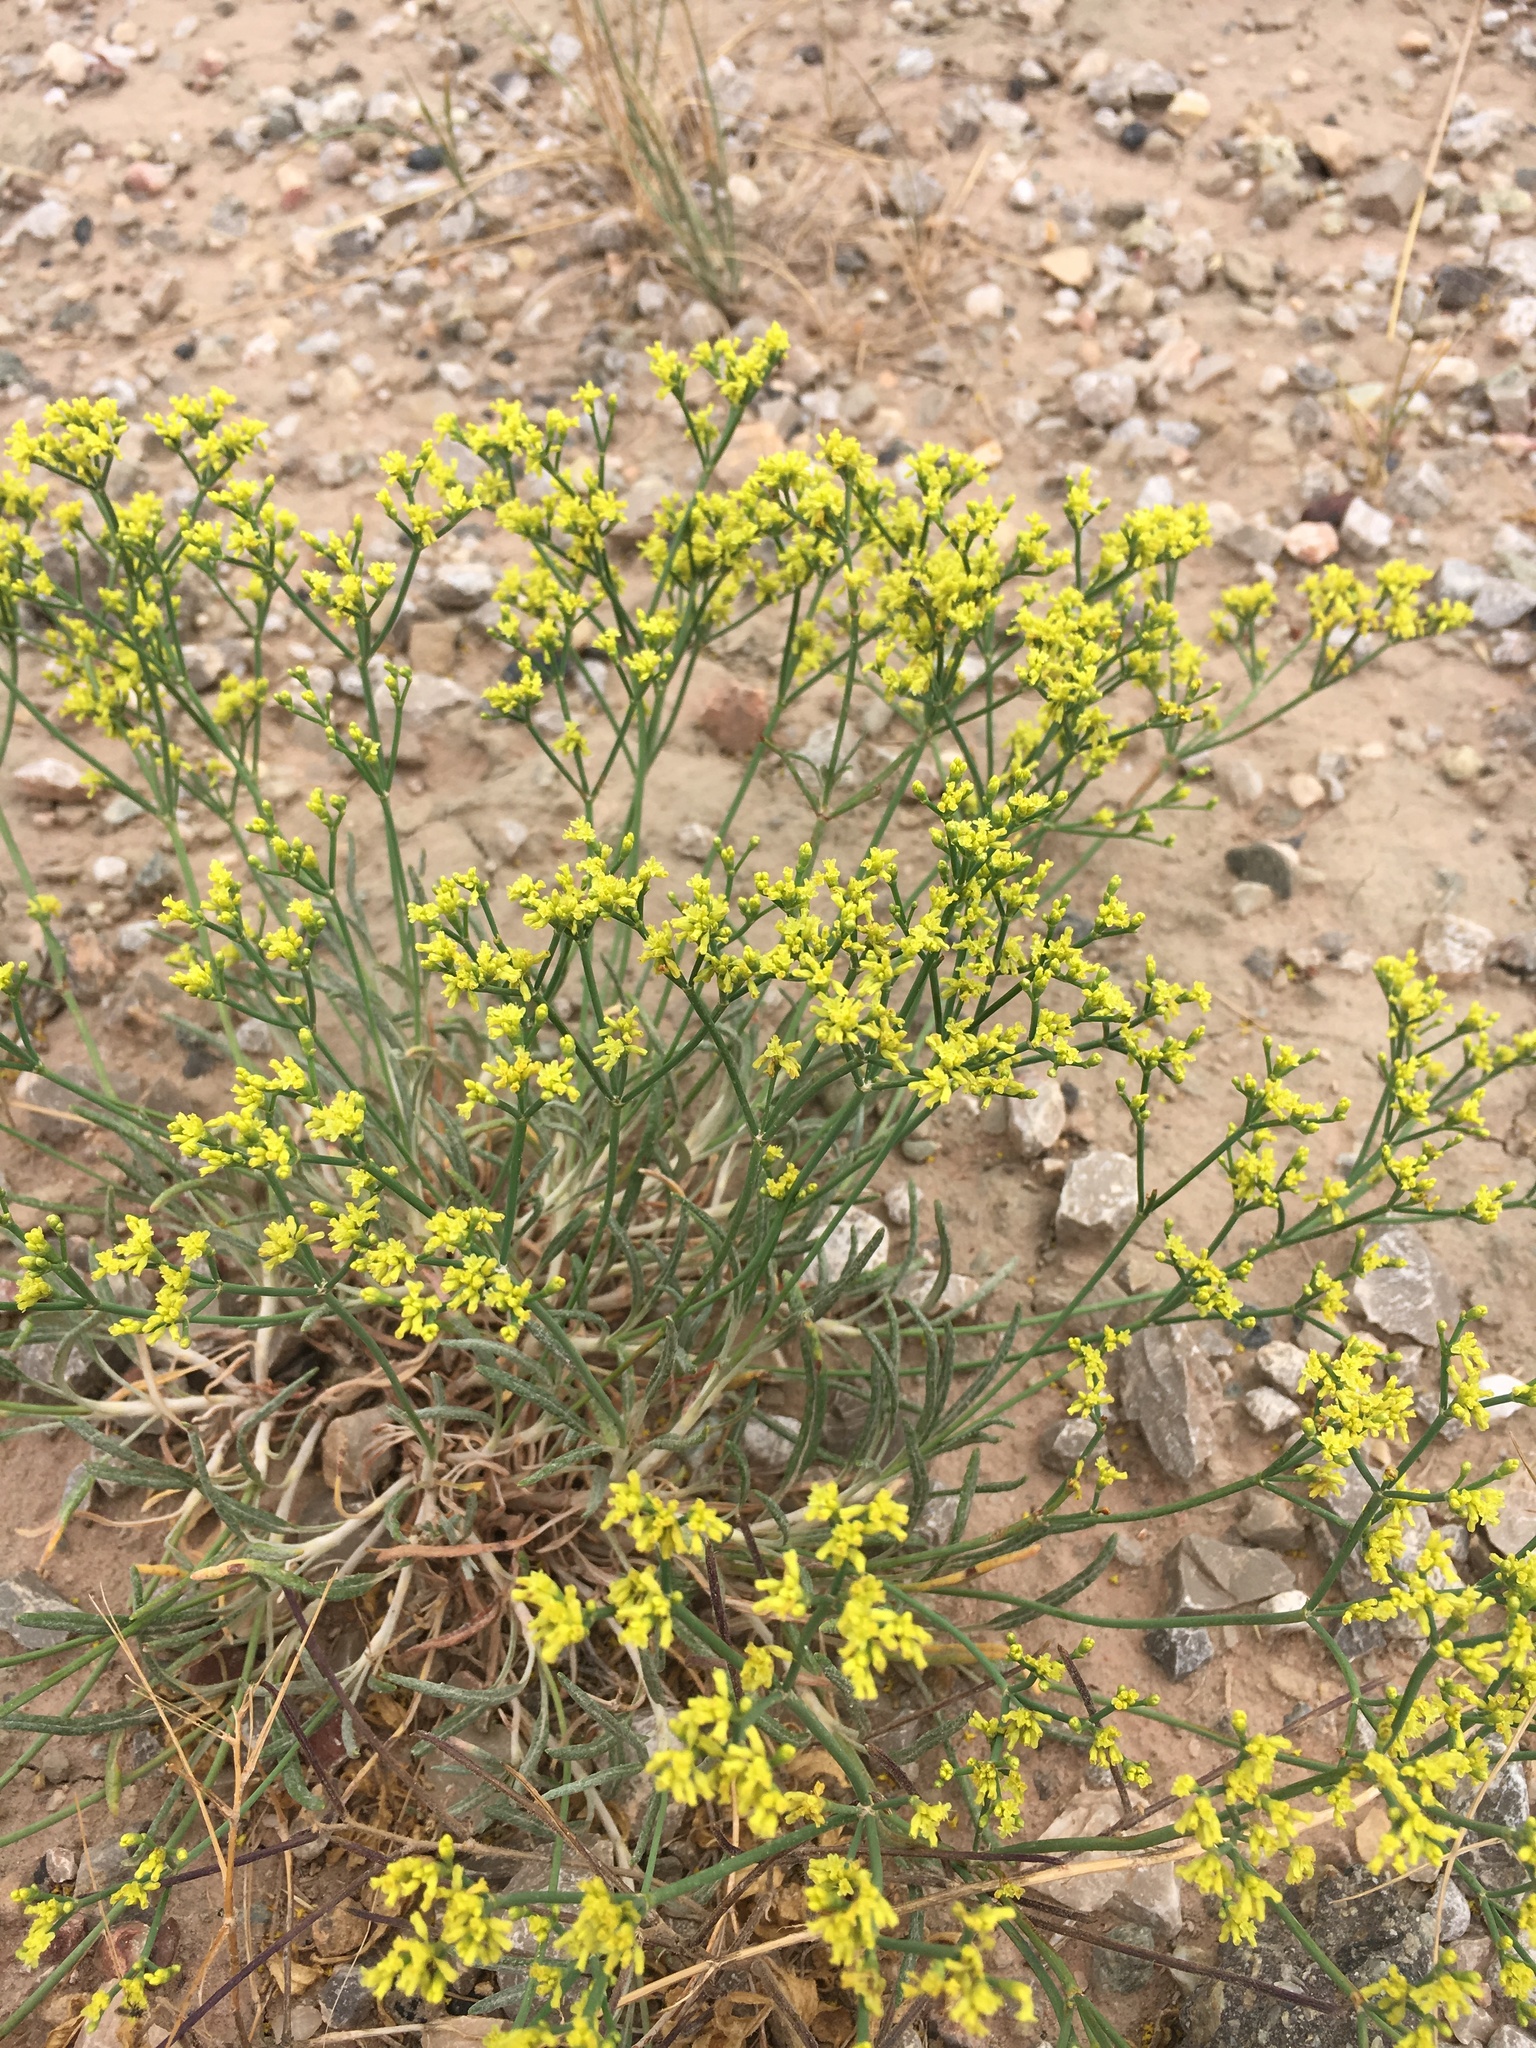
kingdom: Plantae
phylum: Tracheophyta
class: Magnoliopsida
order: Caryophyllales
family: Polygonaceae
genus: Eriogonum
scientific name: Eriogonum brevicaule
